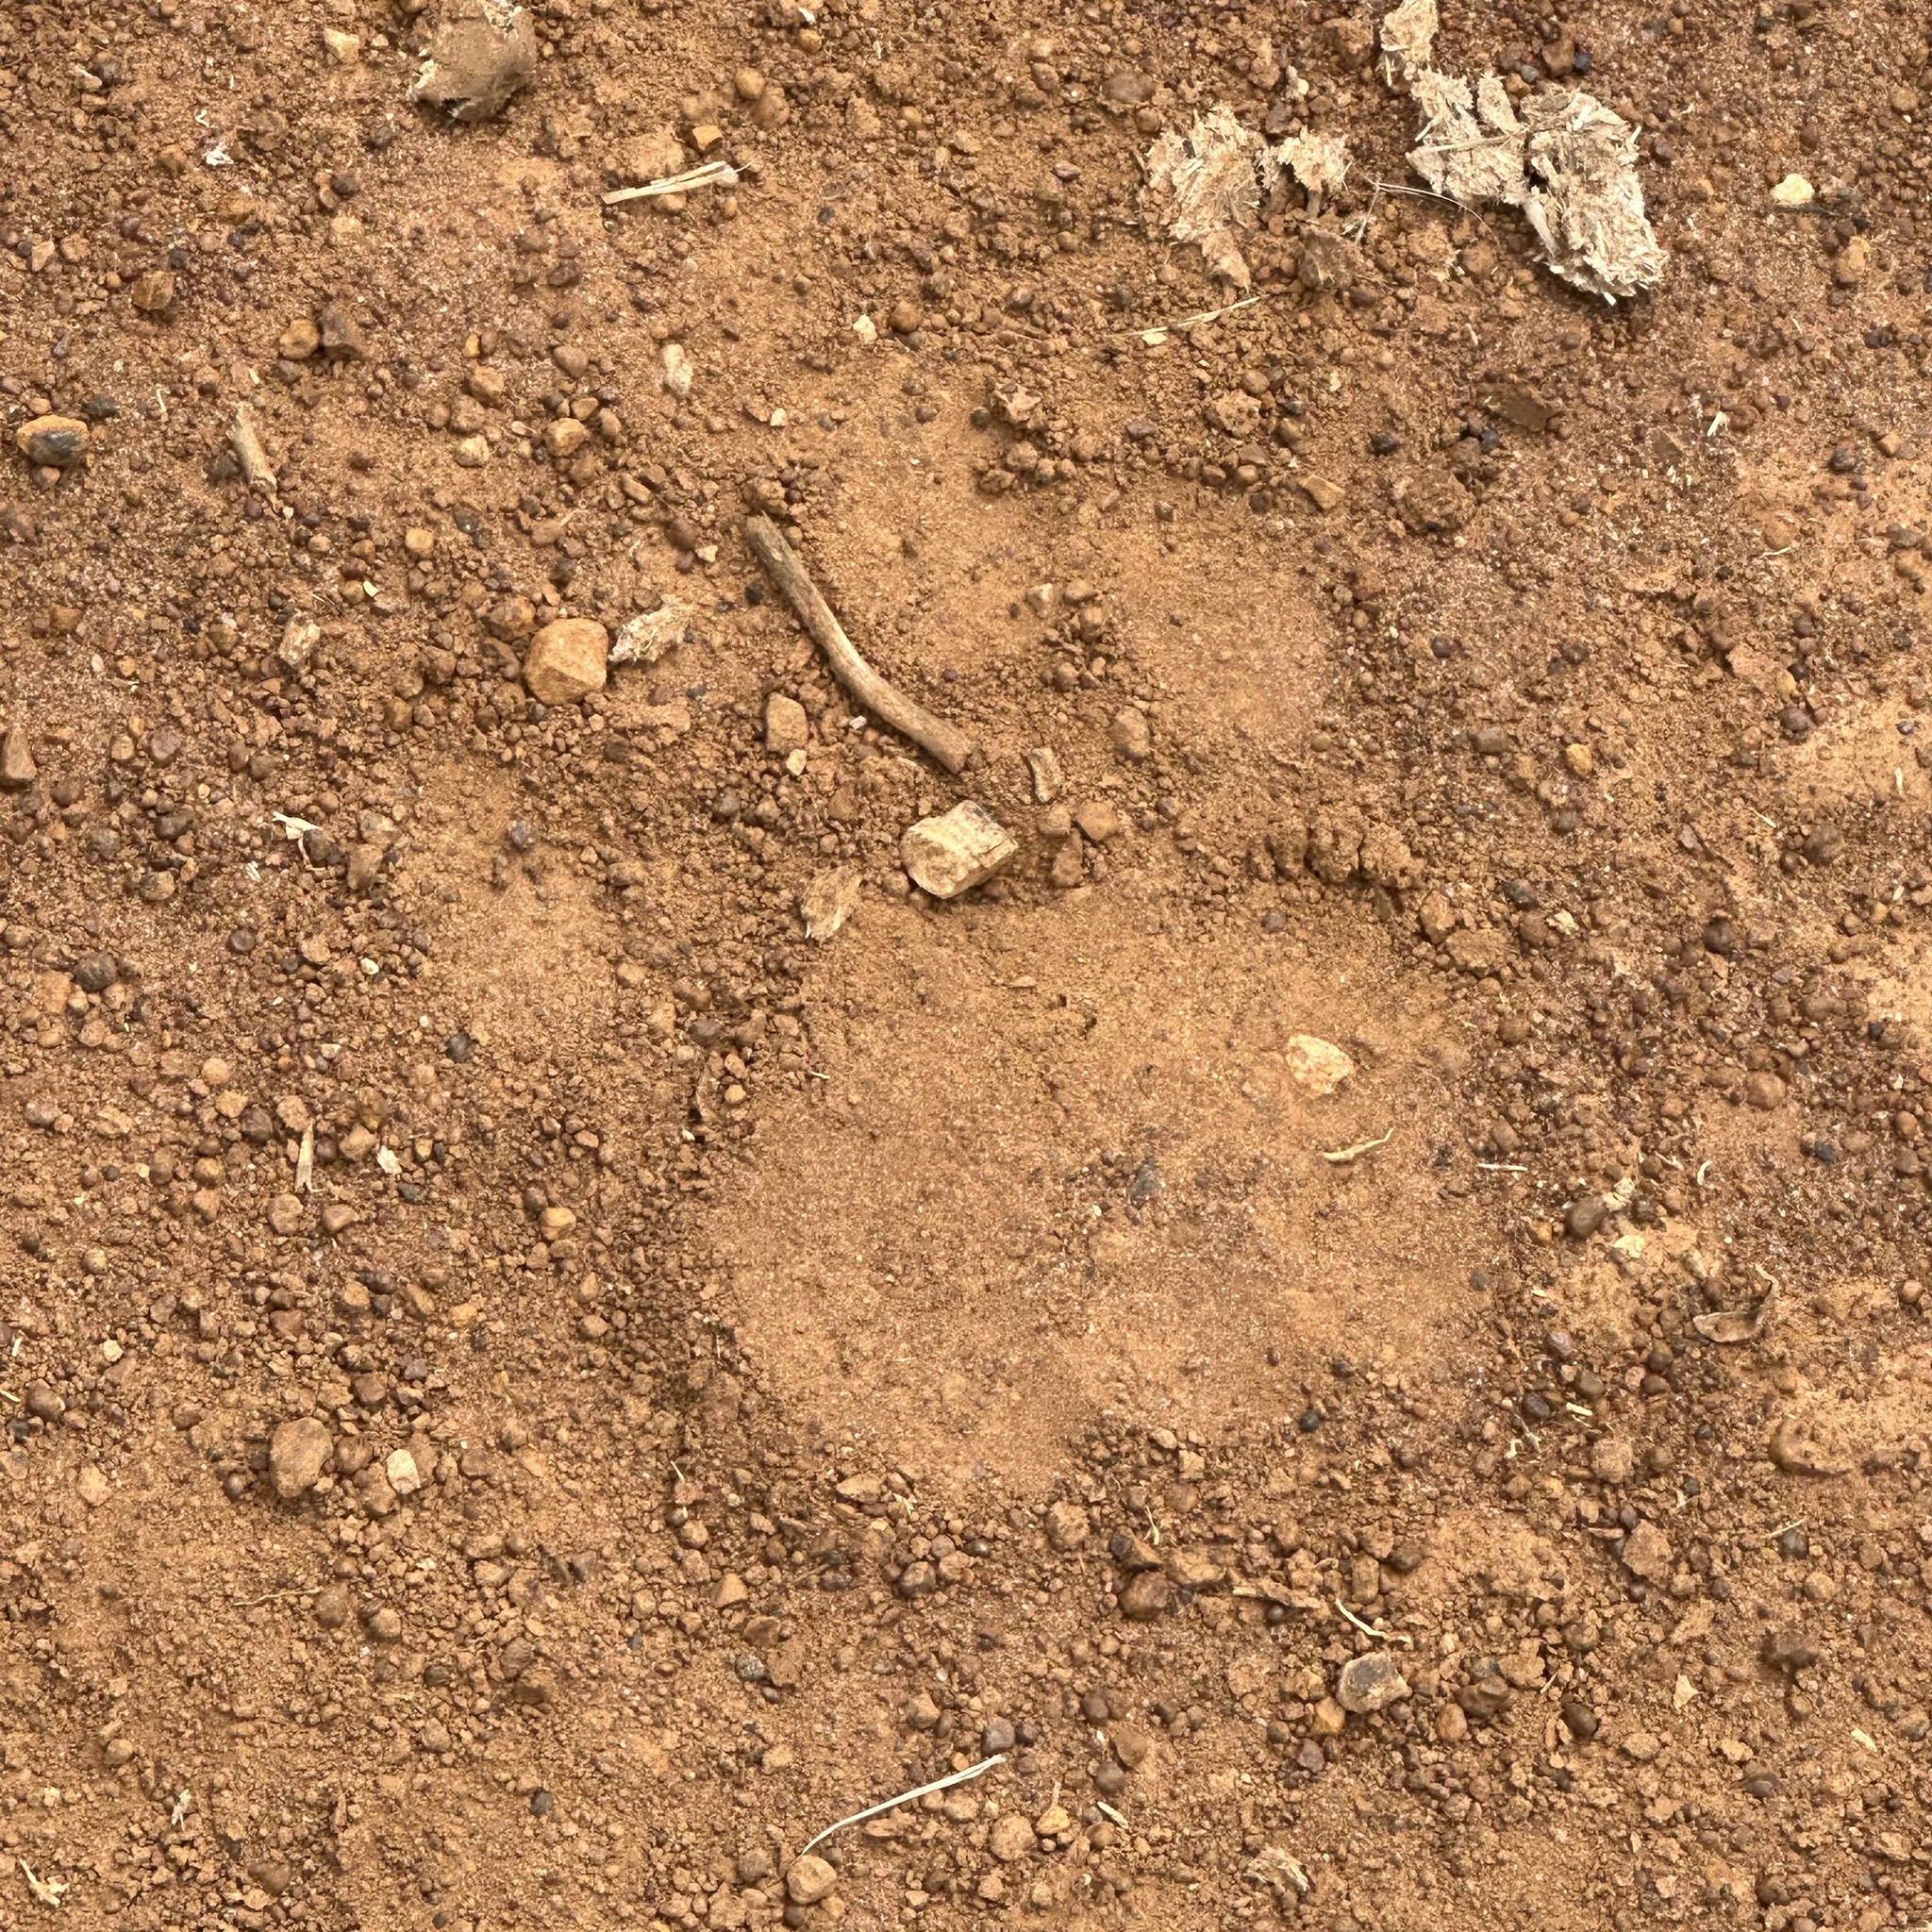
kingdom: Animalia
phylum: Chordata
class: Mammalia
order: Carnivora
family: Felidae
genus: Panthera
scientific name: Panthera leo
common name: Lion
